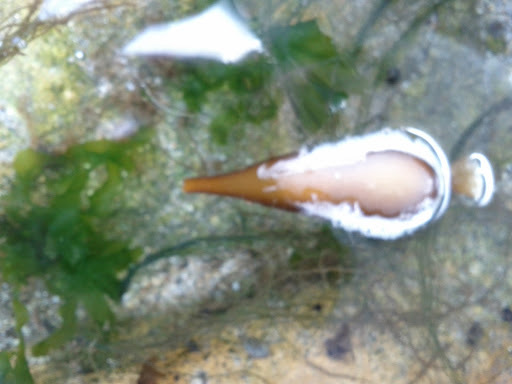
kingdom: Chromista
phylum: Ochrophyta
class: Phaeophyceae
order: Laminariales
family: Laminariaceae
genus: Macrocystis
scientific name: Macrocystis pyrifera
